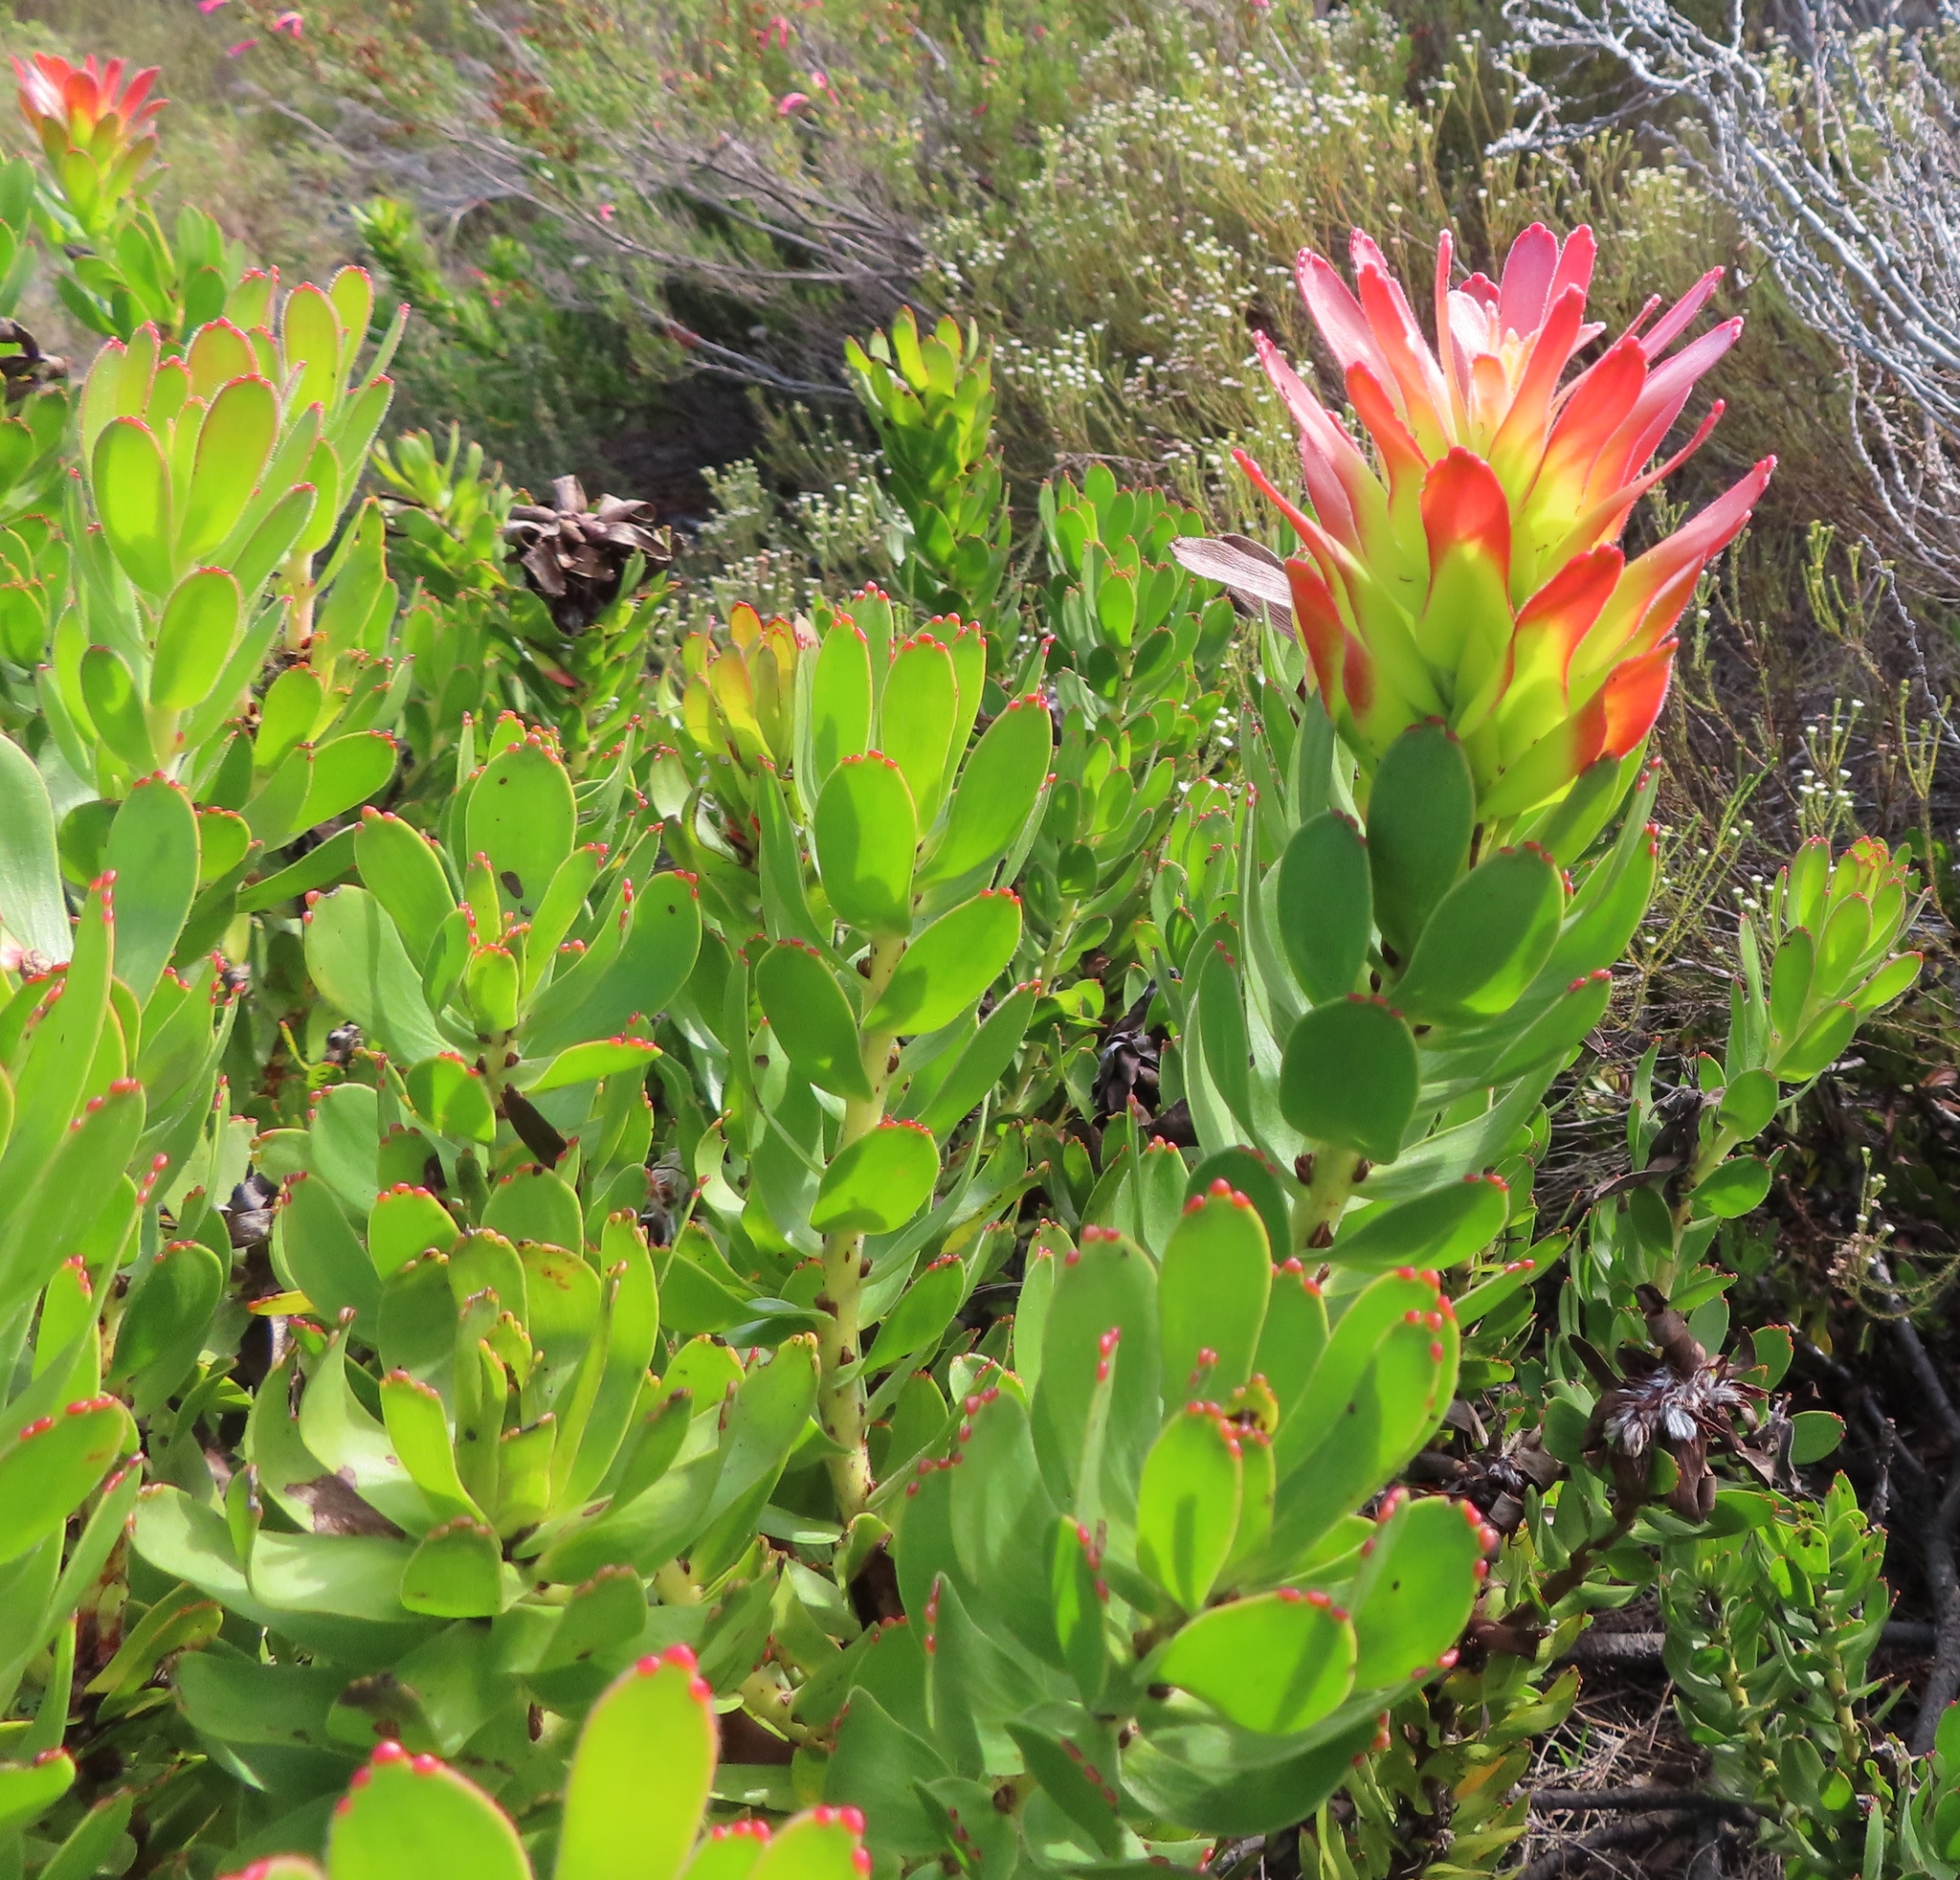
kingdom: Plantae
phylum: Tracheophyta
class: Magnoliopsida
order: Proteales
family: Proteaceae
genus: Mimetes
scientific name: Mimetes cucullatus
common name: Common pagoda
